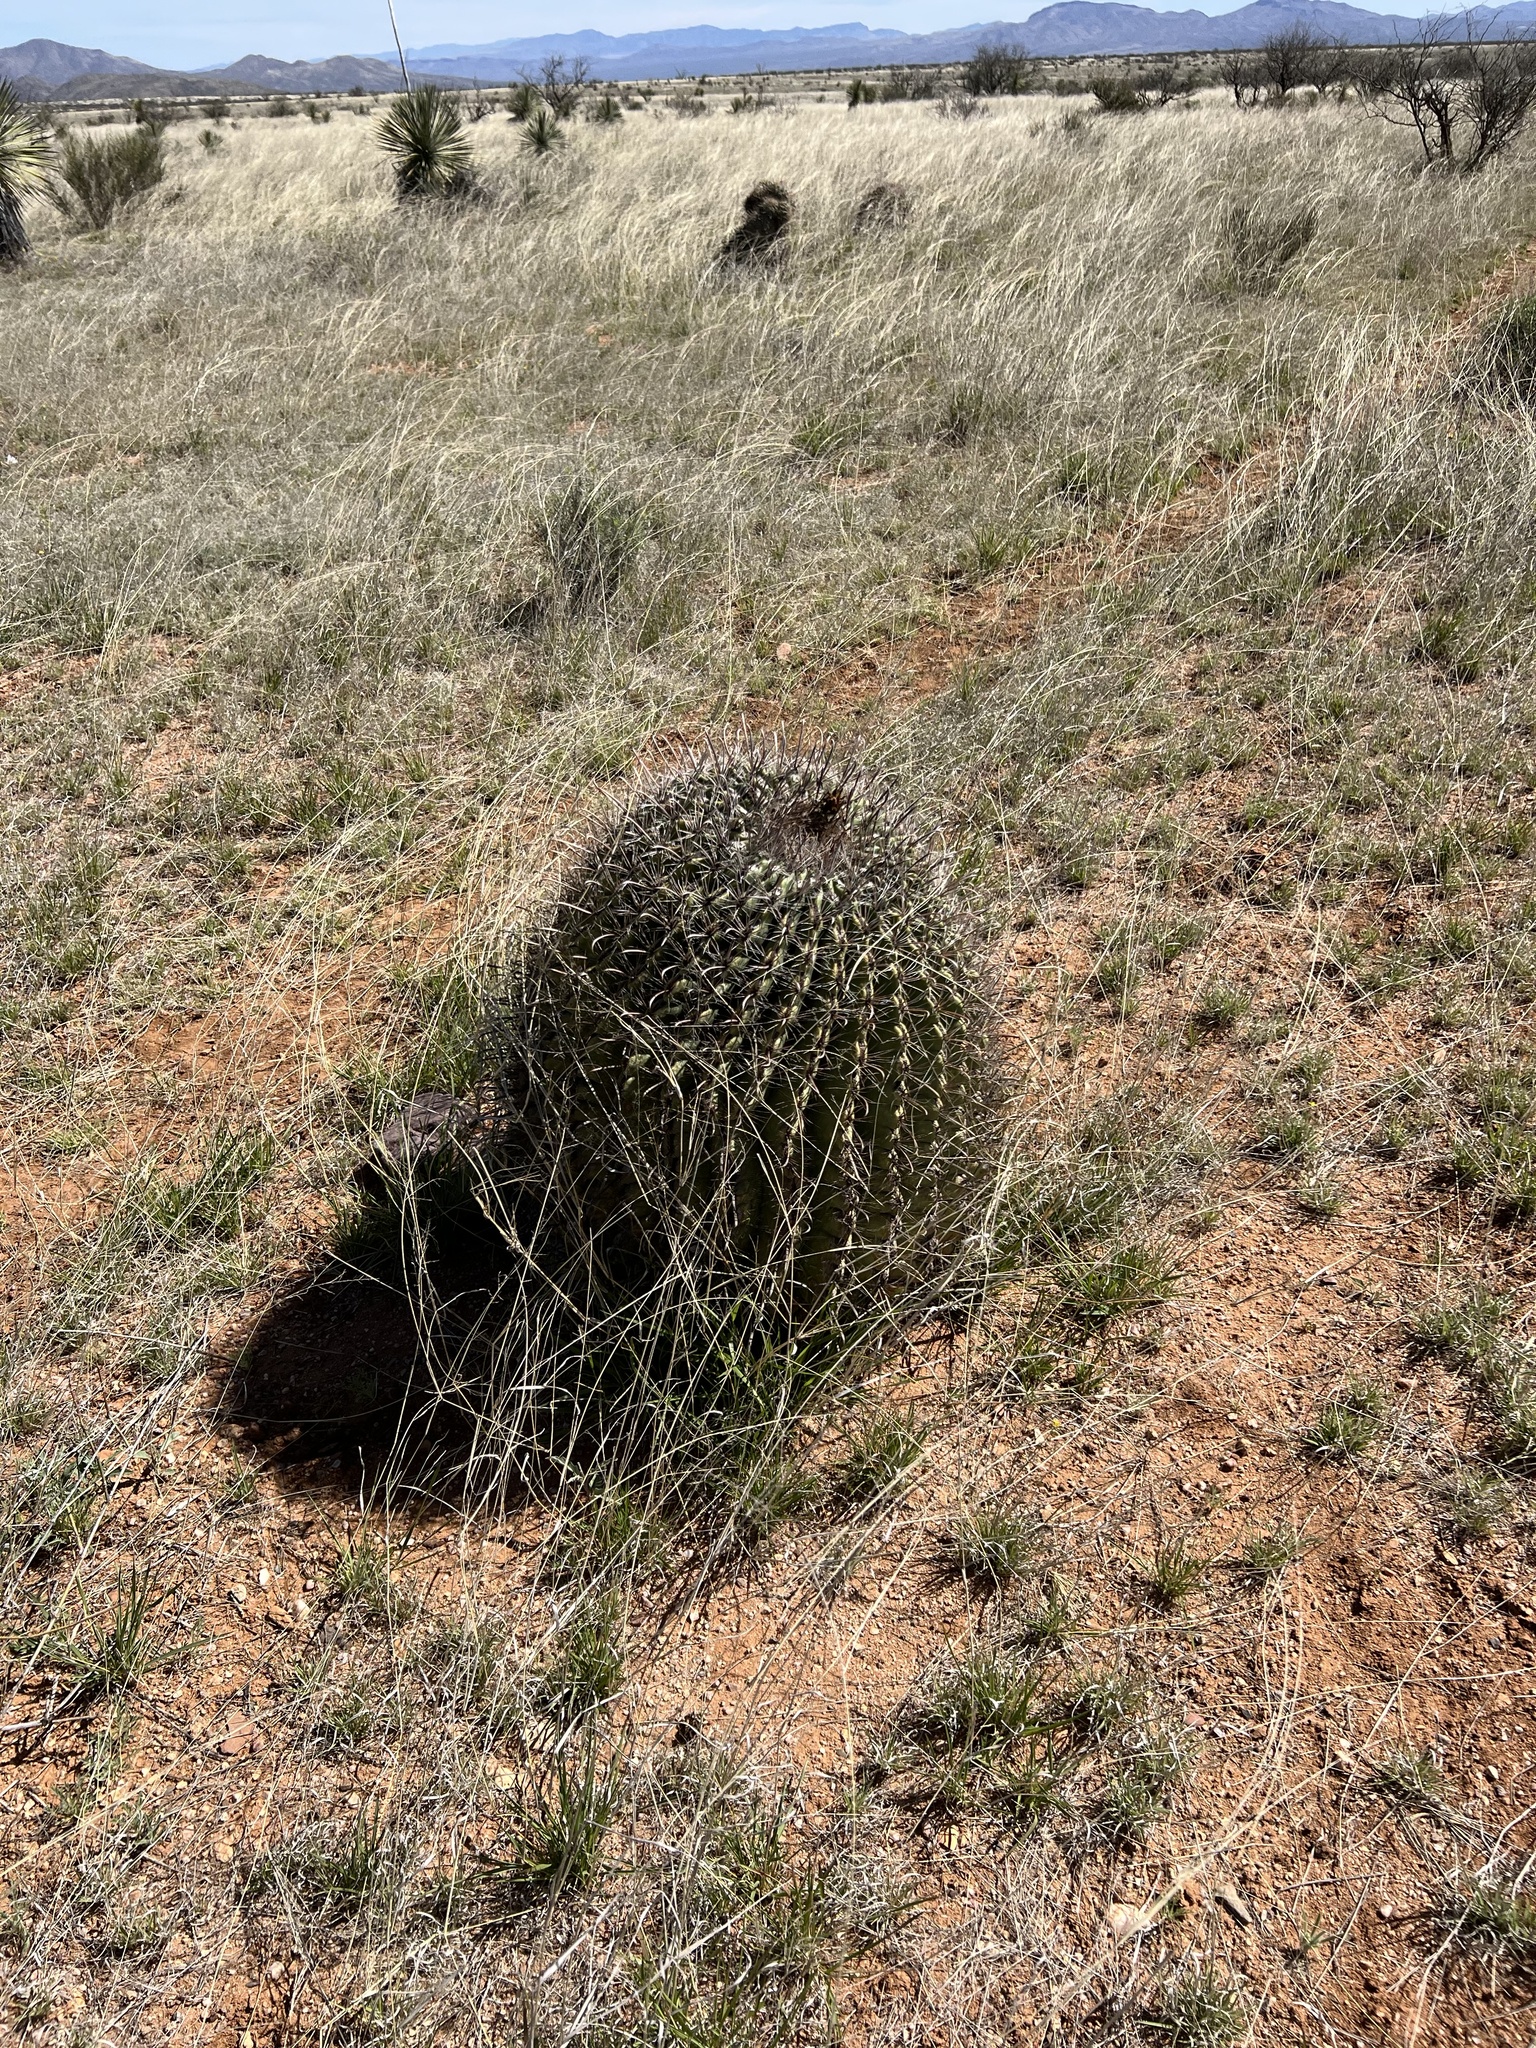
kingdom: Plantae
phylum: Tracheophyta
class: Magnoliopsida
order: Caryophyllales
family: Cactaceae
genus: Ferocactus
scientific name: Ferocactus wislizeni
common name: Candy barrel cactus
